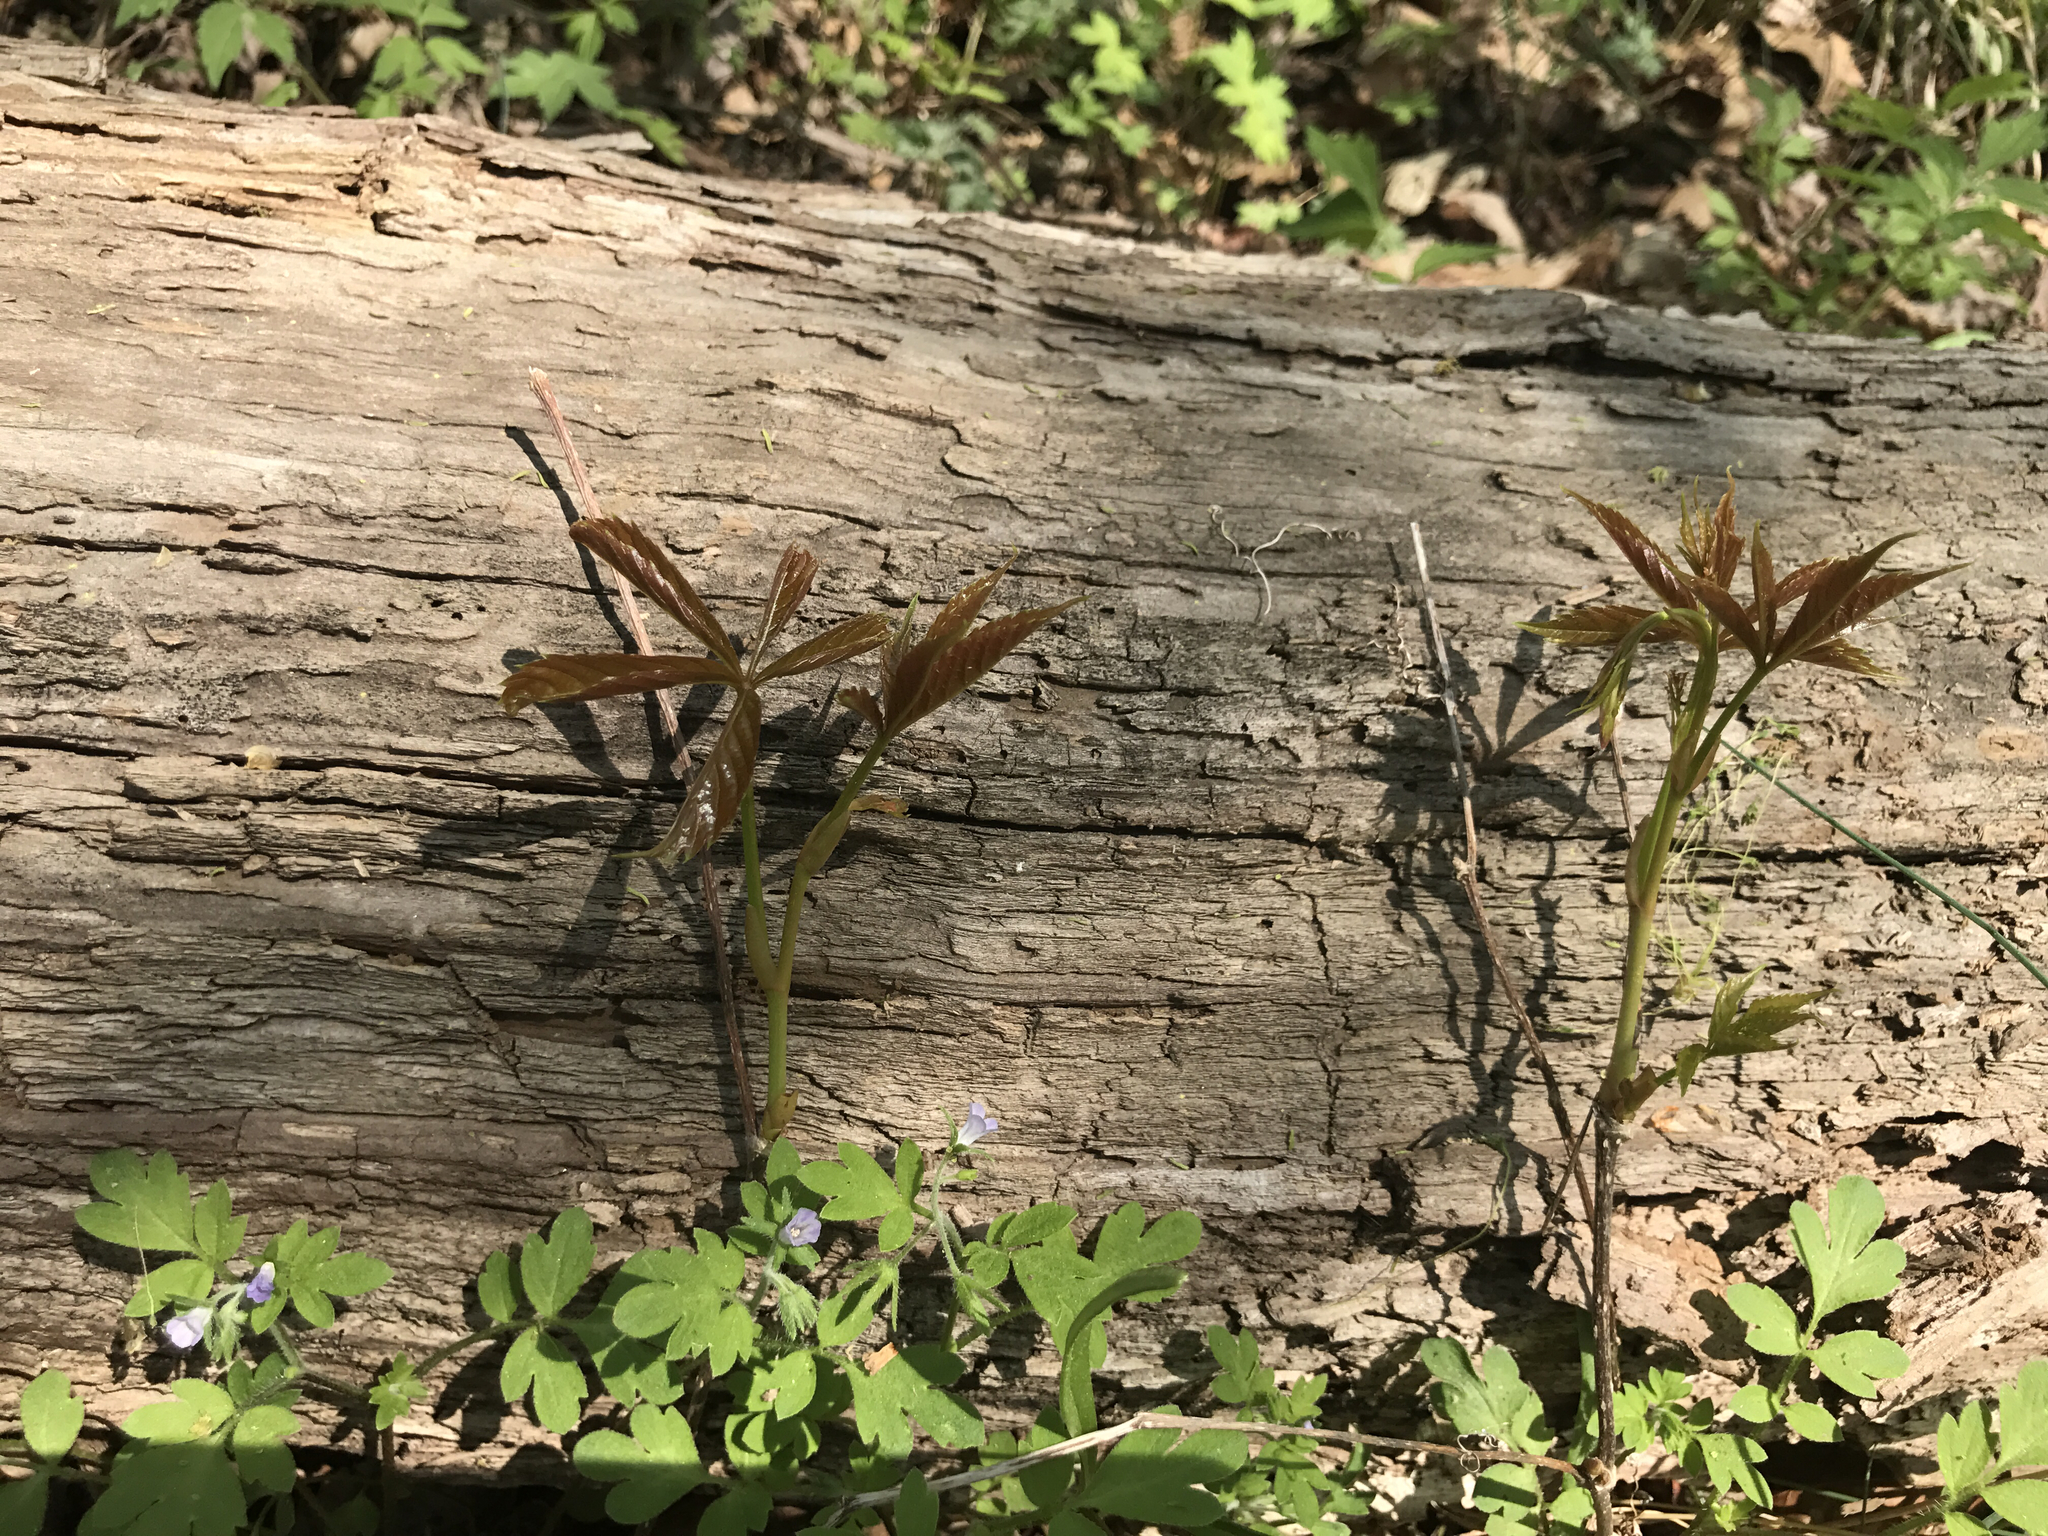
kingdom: Plantae
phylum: Tracheophyta
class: Magnoliopsida
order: Vitales
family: Vitaceae
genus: Parthenocissus
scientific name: Parthenocissus quinquefolia
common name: Virginia-creeper
